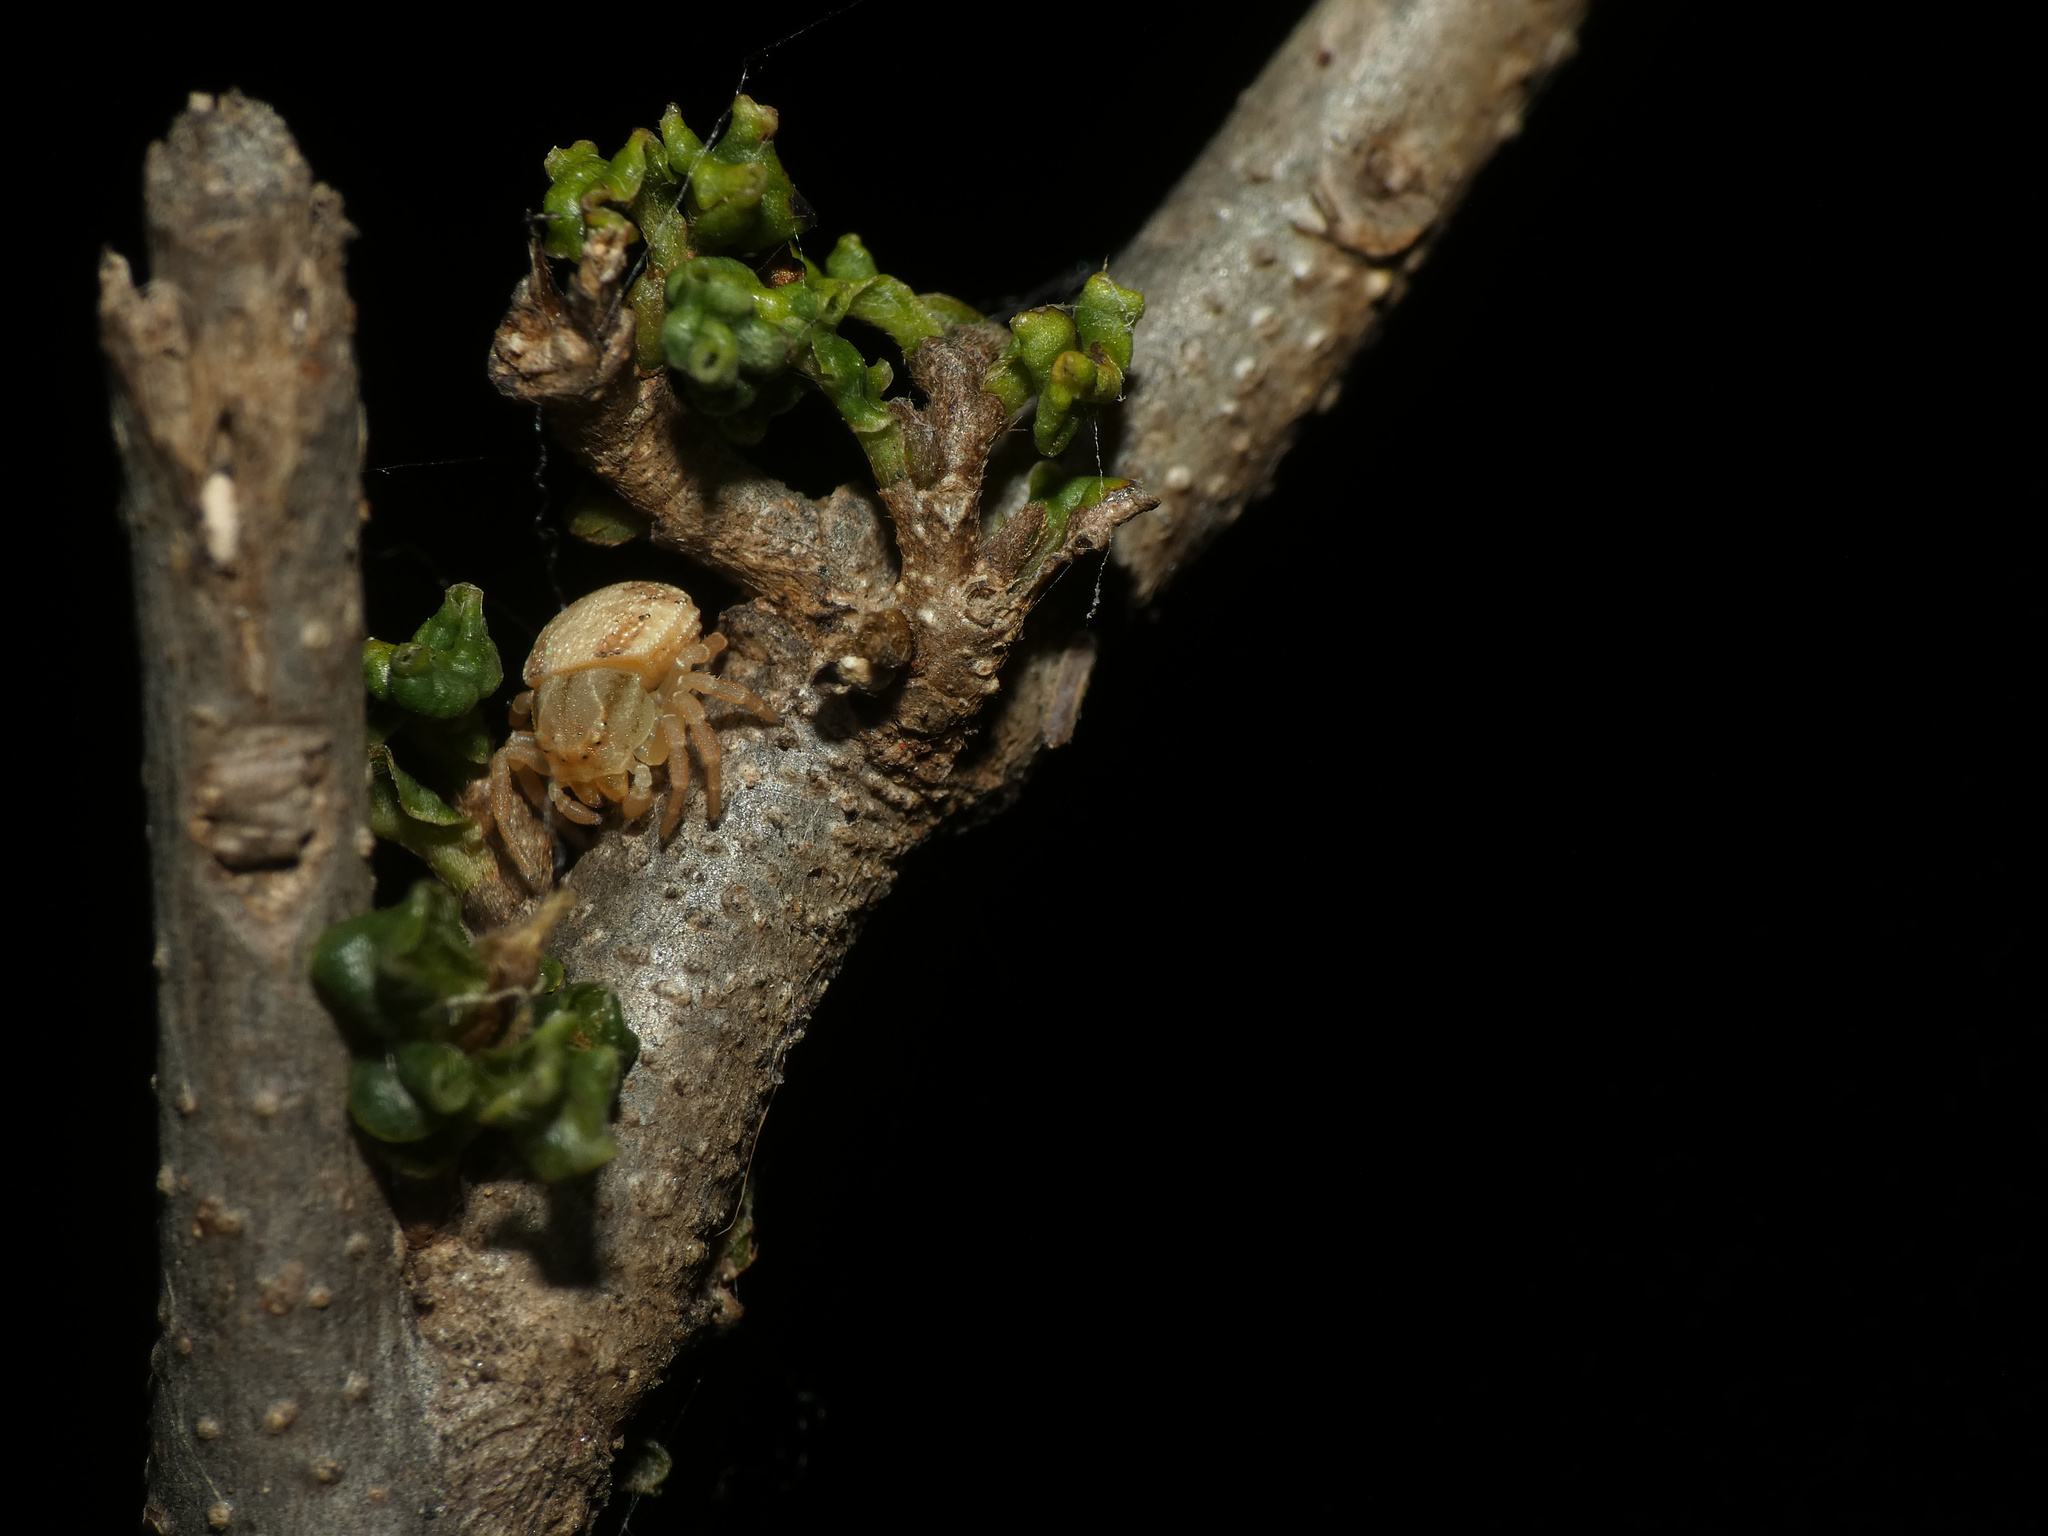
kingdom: Animalia
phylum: Arthropoda
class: Arachnida
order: Araneae
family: Thomisidae
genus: Thomisops
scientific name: Thomisops pupa
